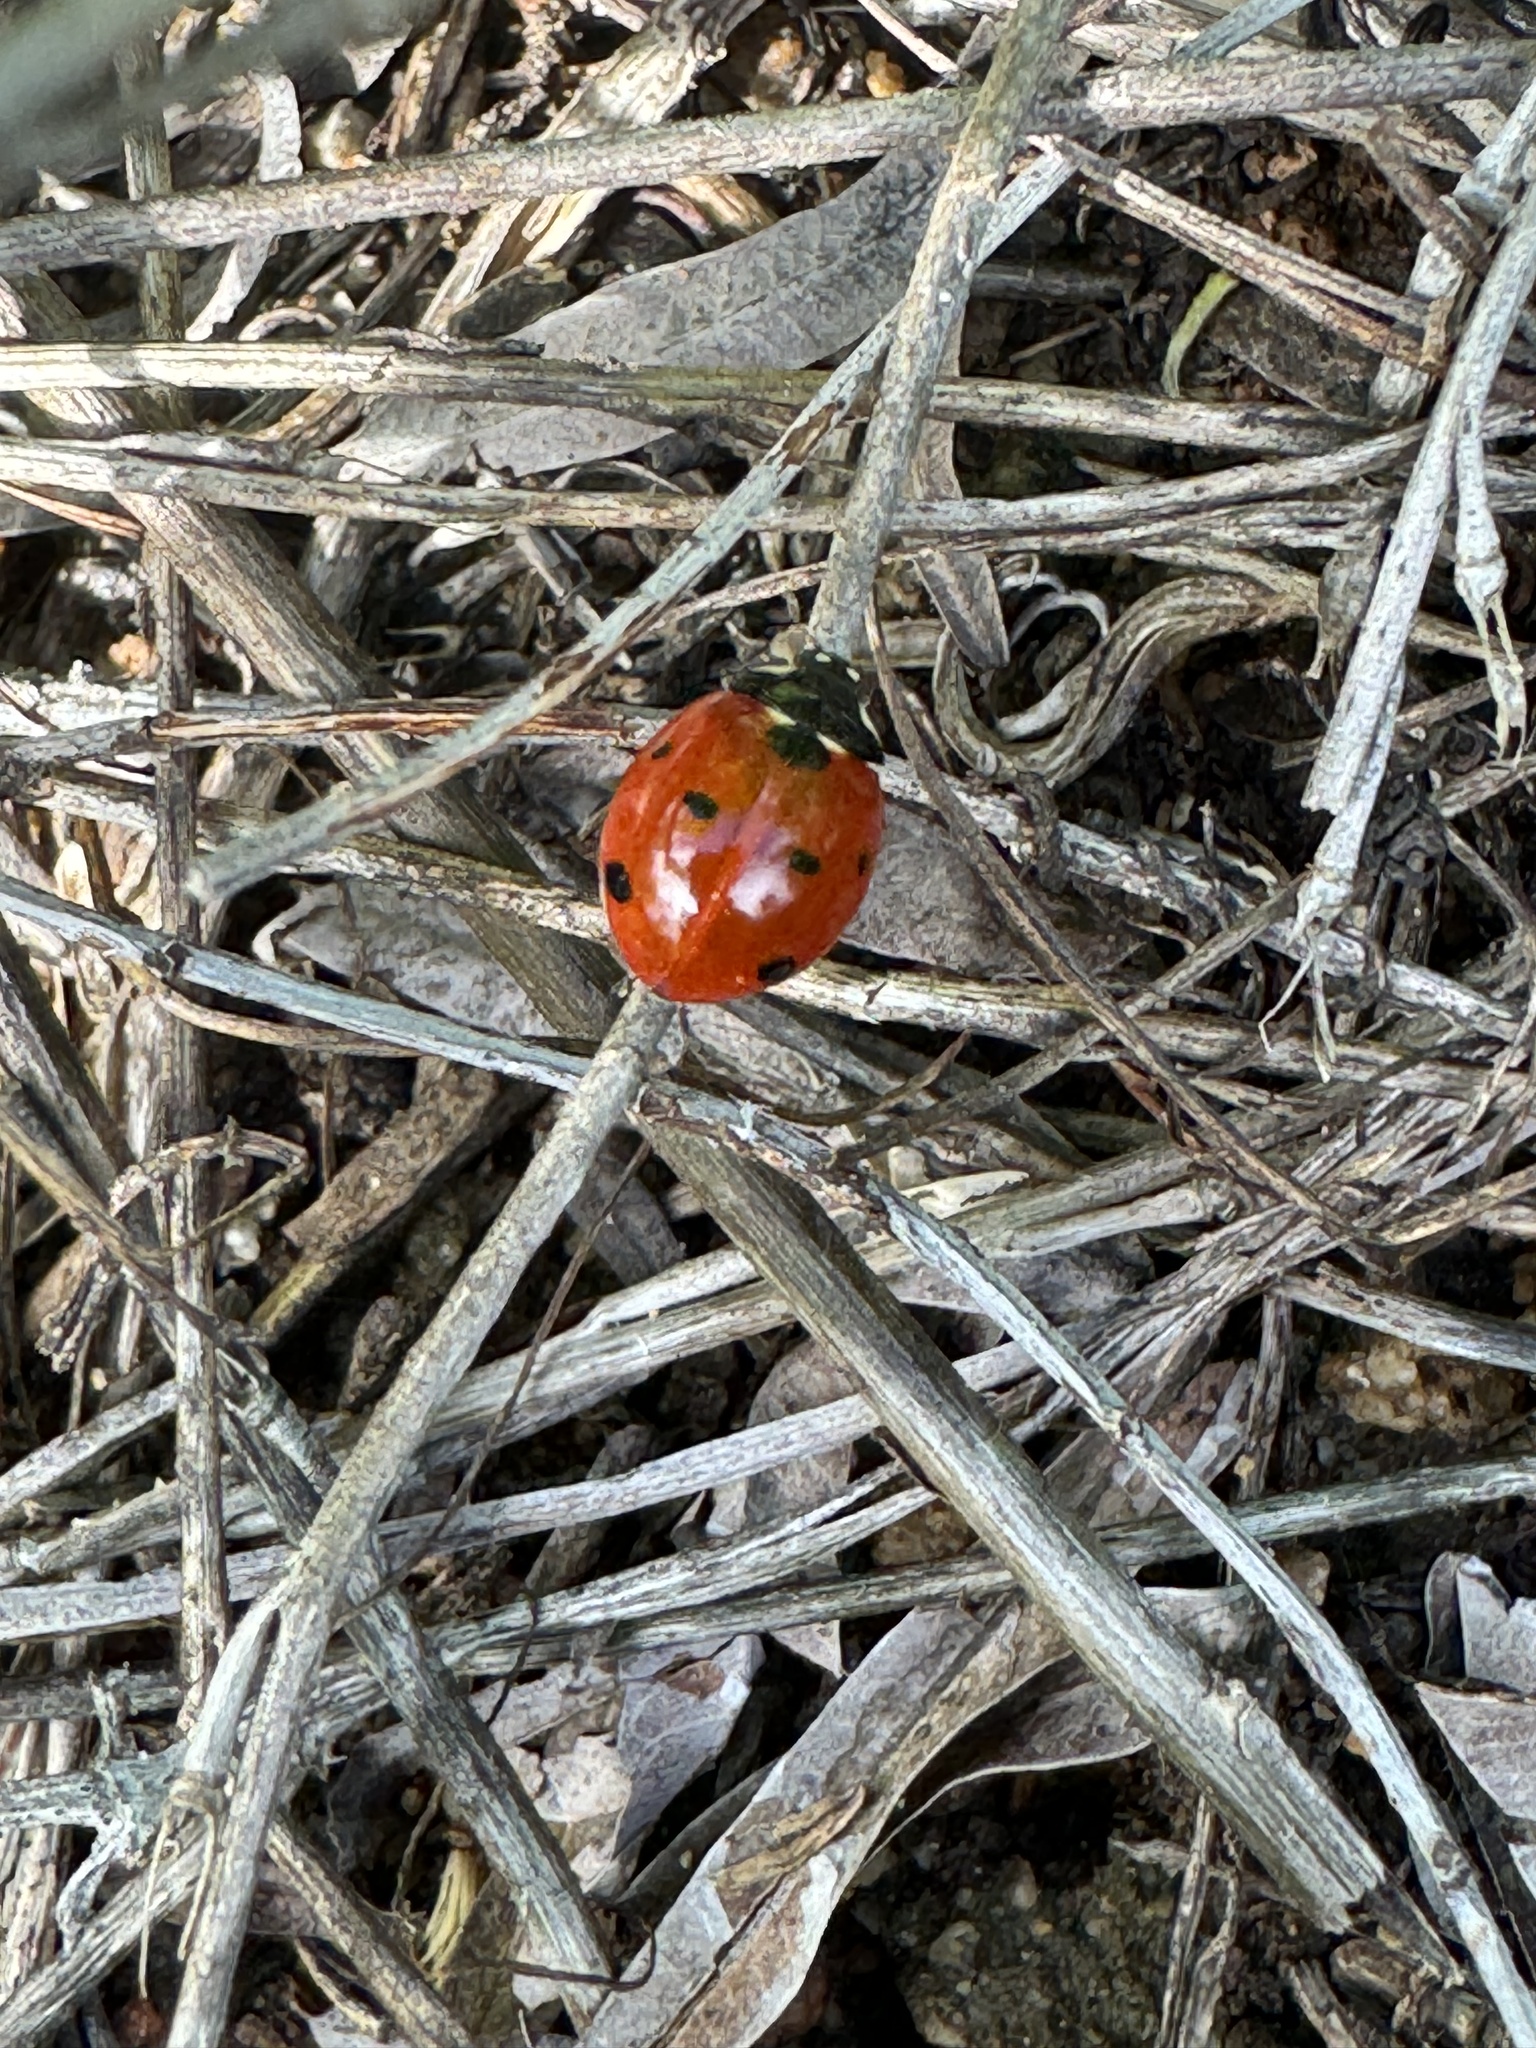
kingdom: Animalia
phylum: Arthropoda
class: Insecta
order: Coleoptera
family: Coccinellidae
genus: Coccinella
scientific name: Coccinella septempunctata
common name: Sevenspotted lady beetle
